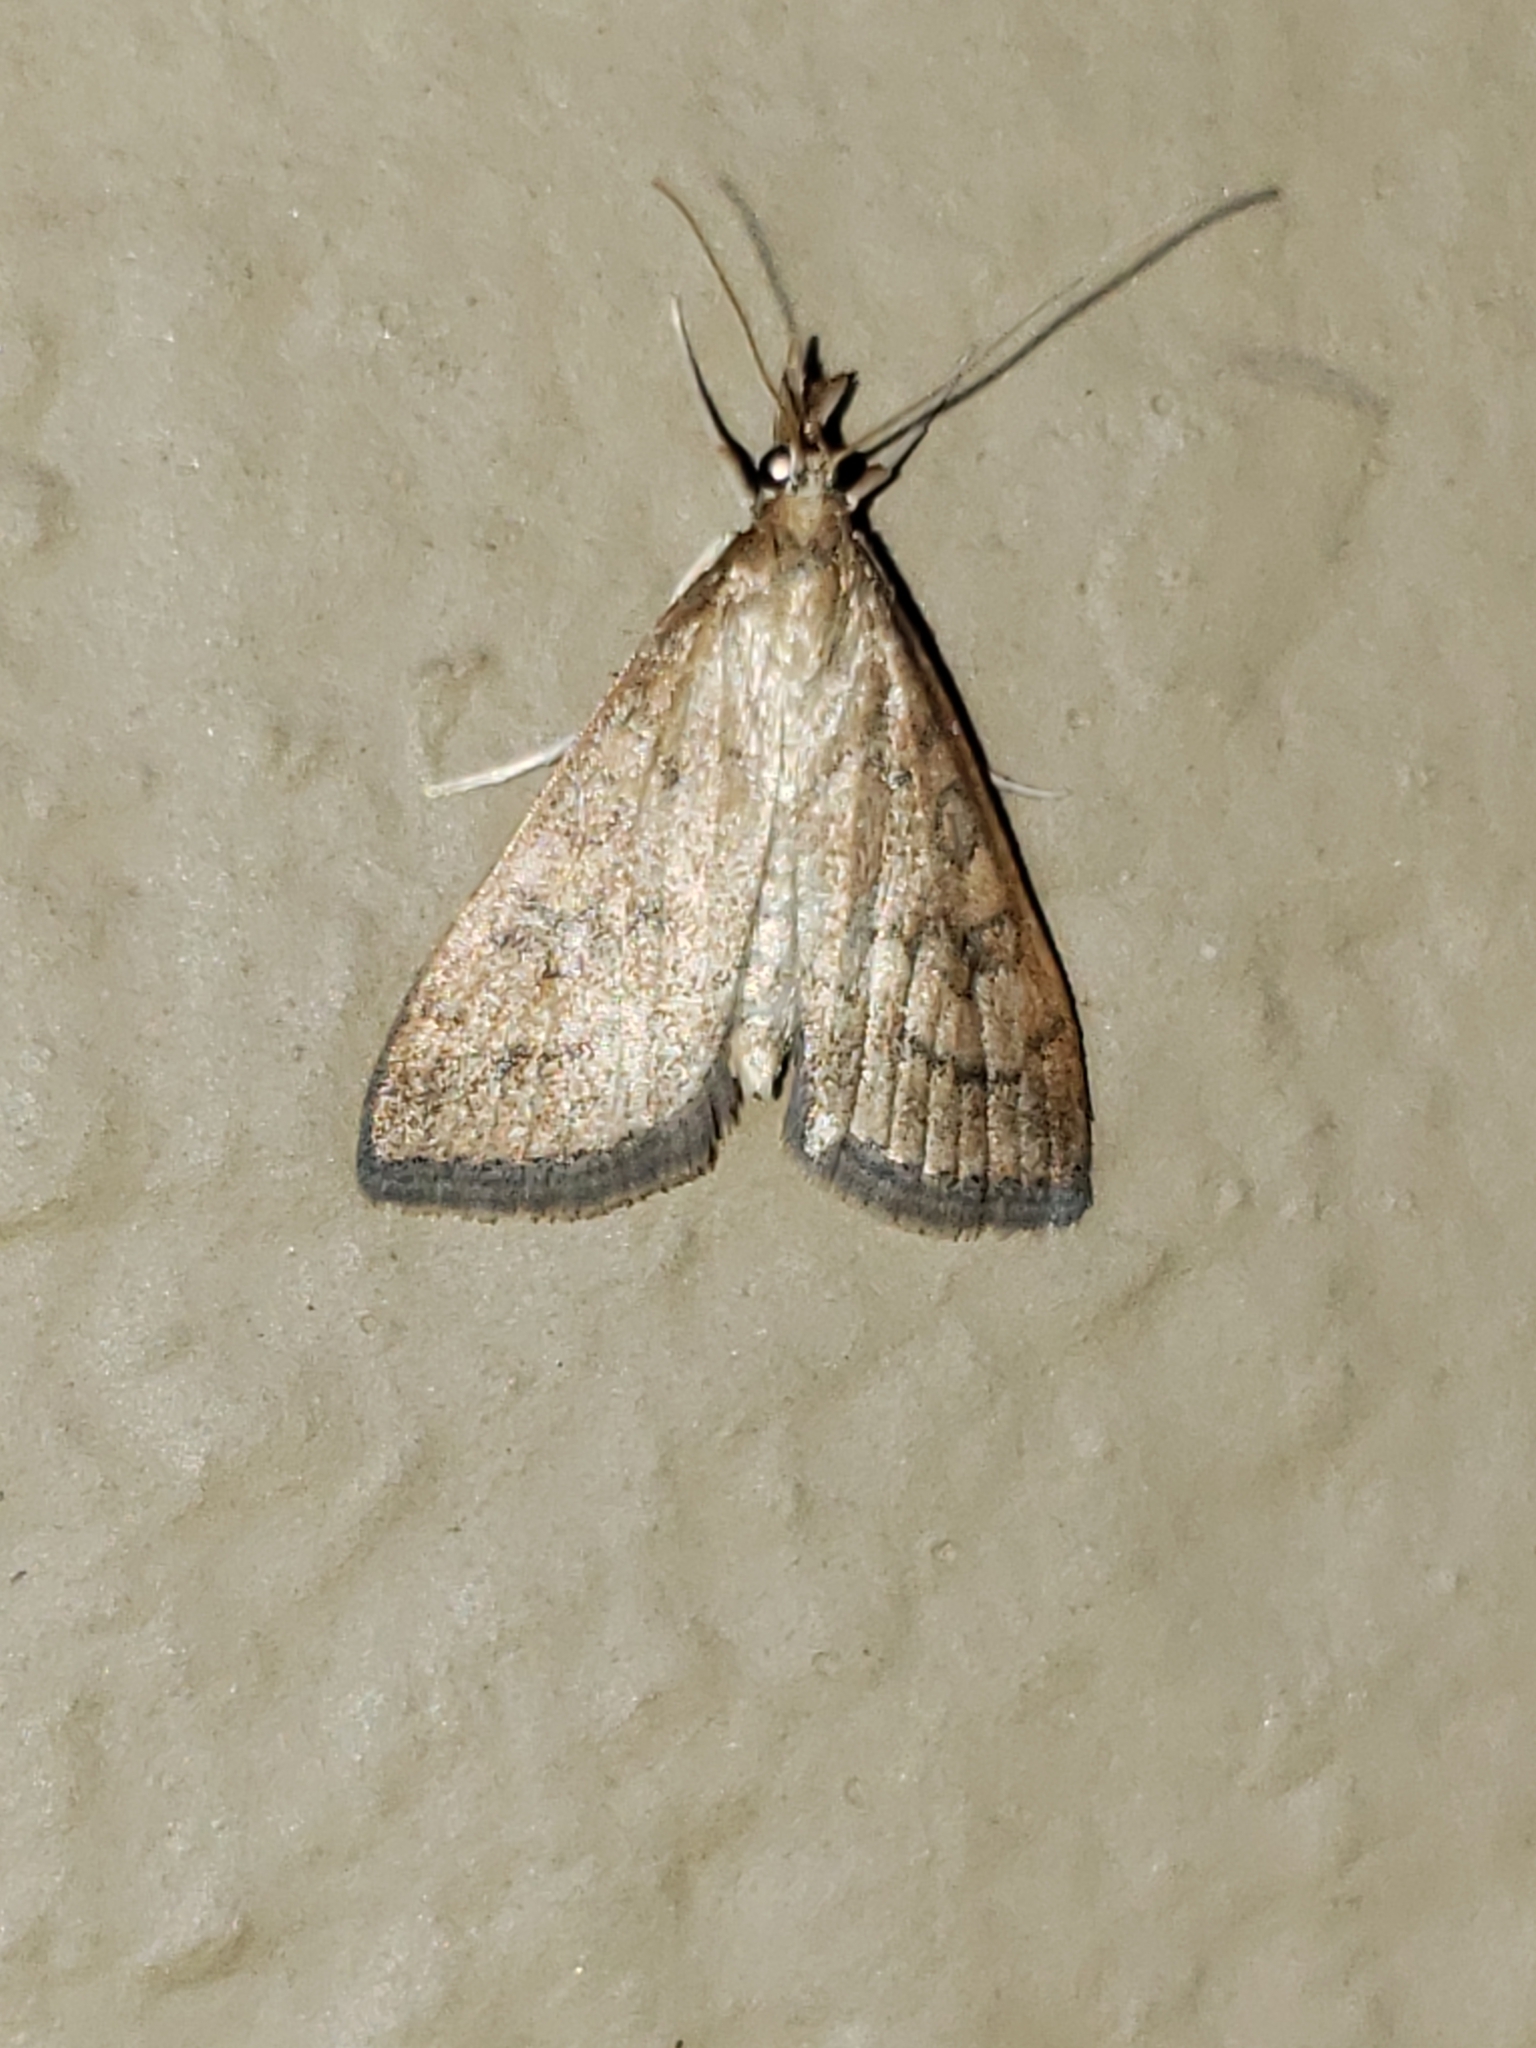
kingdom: Animalia
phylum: Arthropoda
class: Insecta
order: Lepidoptera
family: Crambidae
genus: Udea
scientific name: Udea rubigalis
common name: Celery leaftier moth
